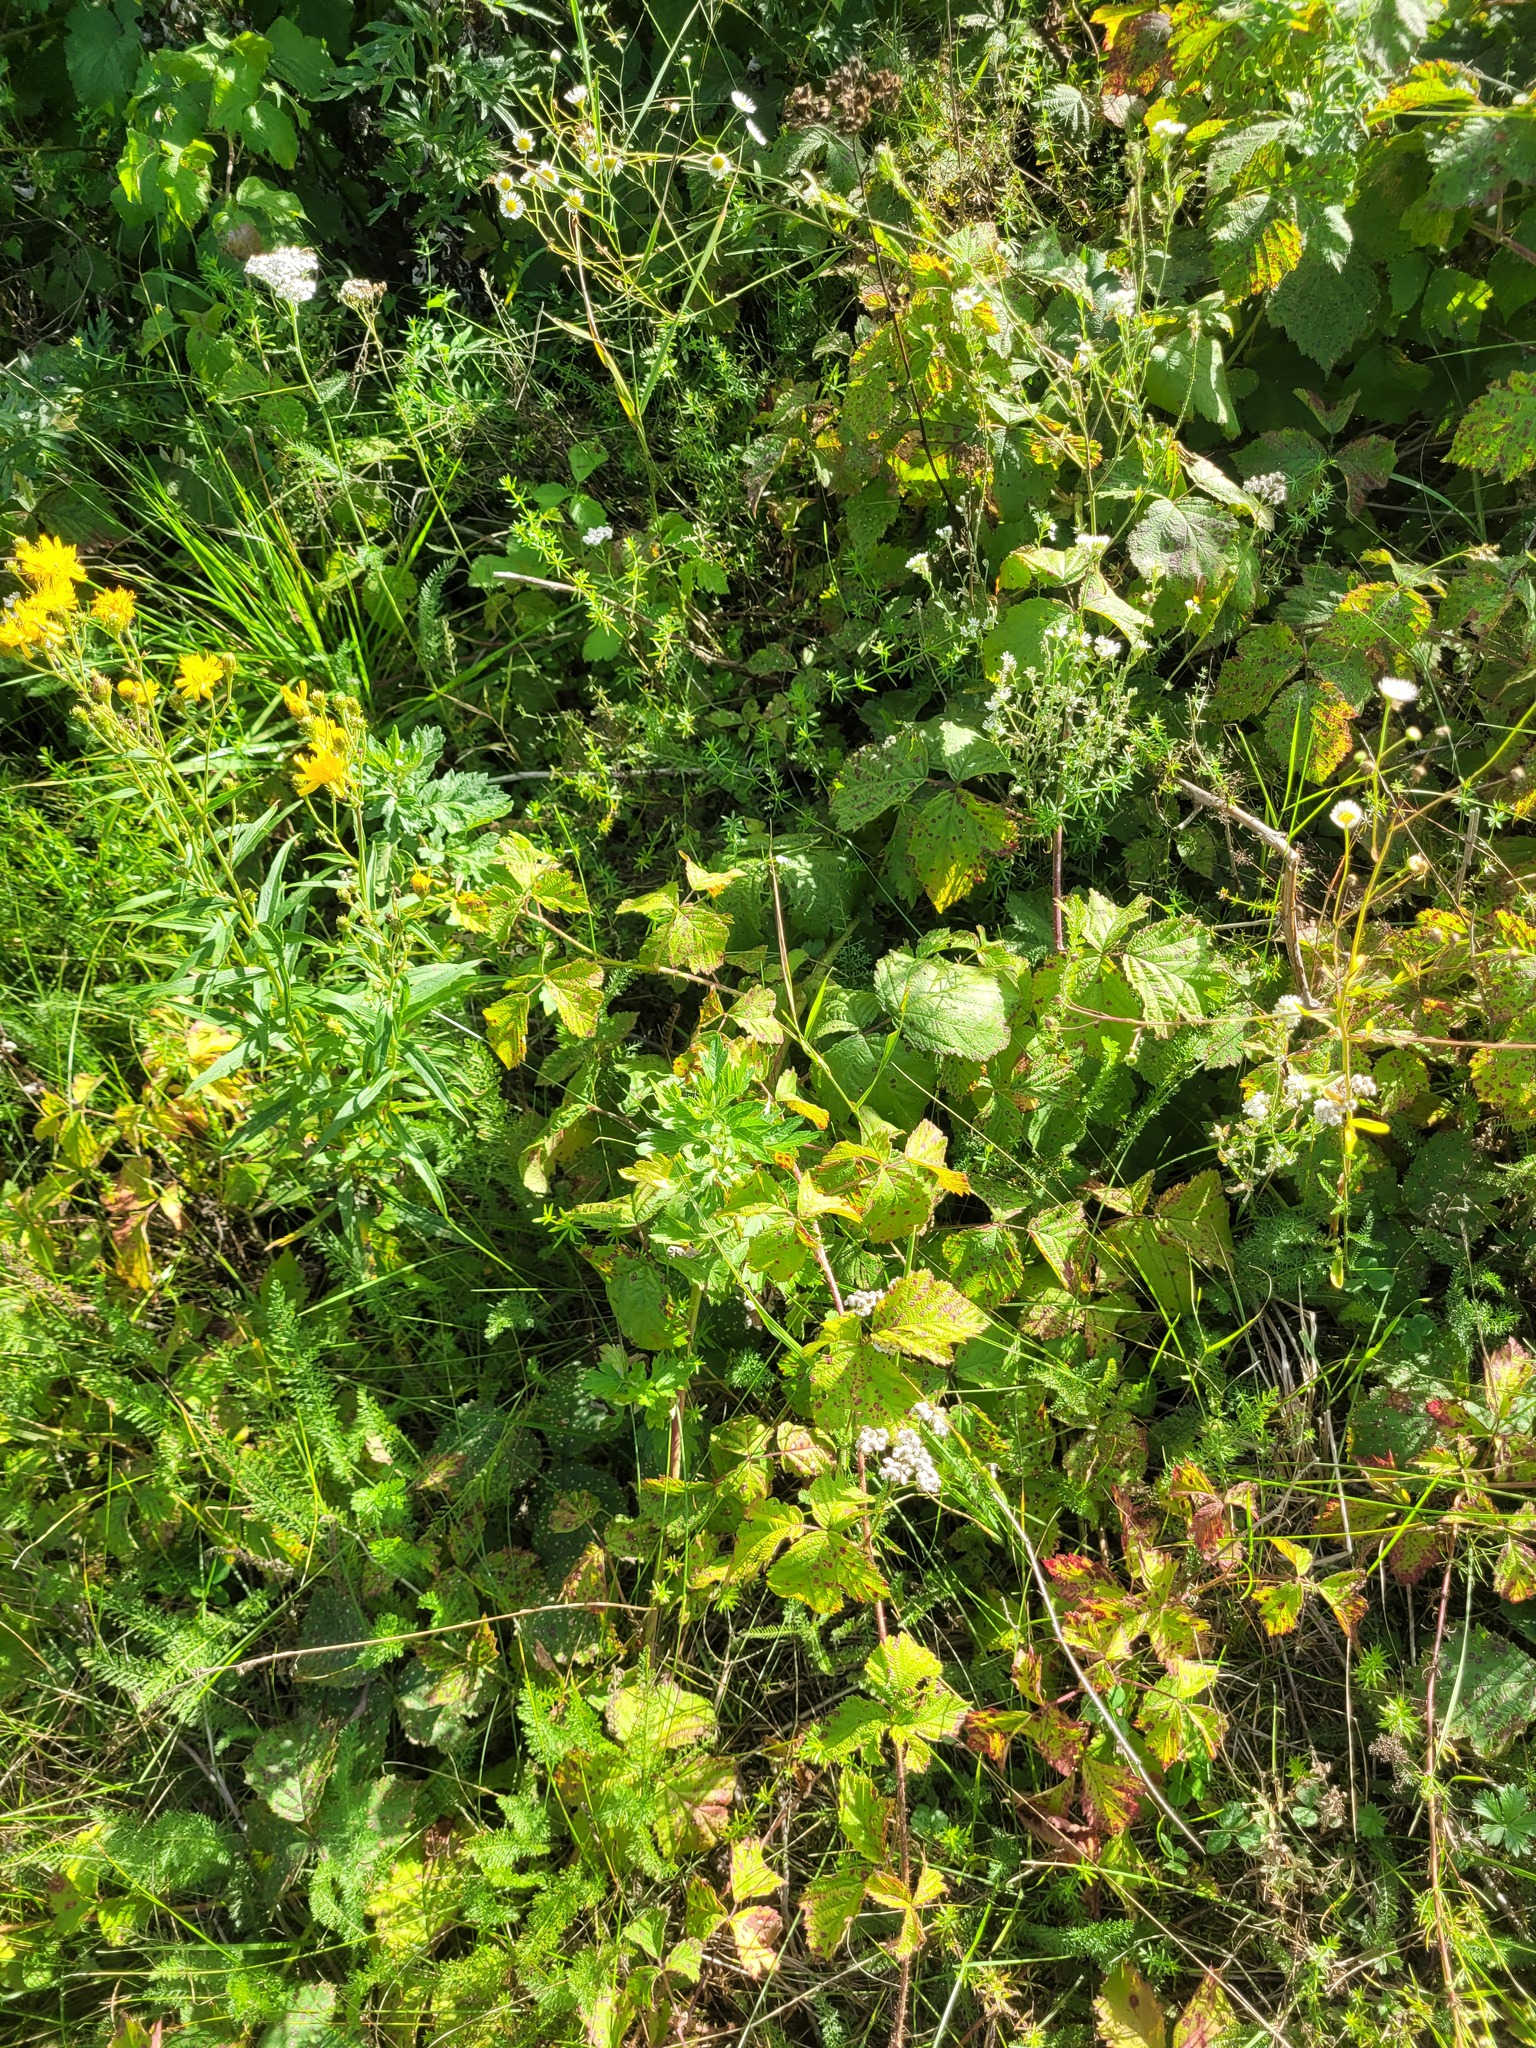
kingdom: Plantae
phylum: Tracheophyta
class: Magnoliopsida
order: Rosales
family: Rosaceae
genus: Rubus
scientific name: Rubus caesius
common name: Dewberry
